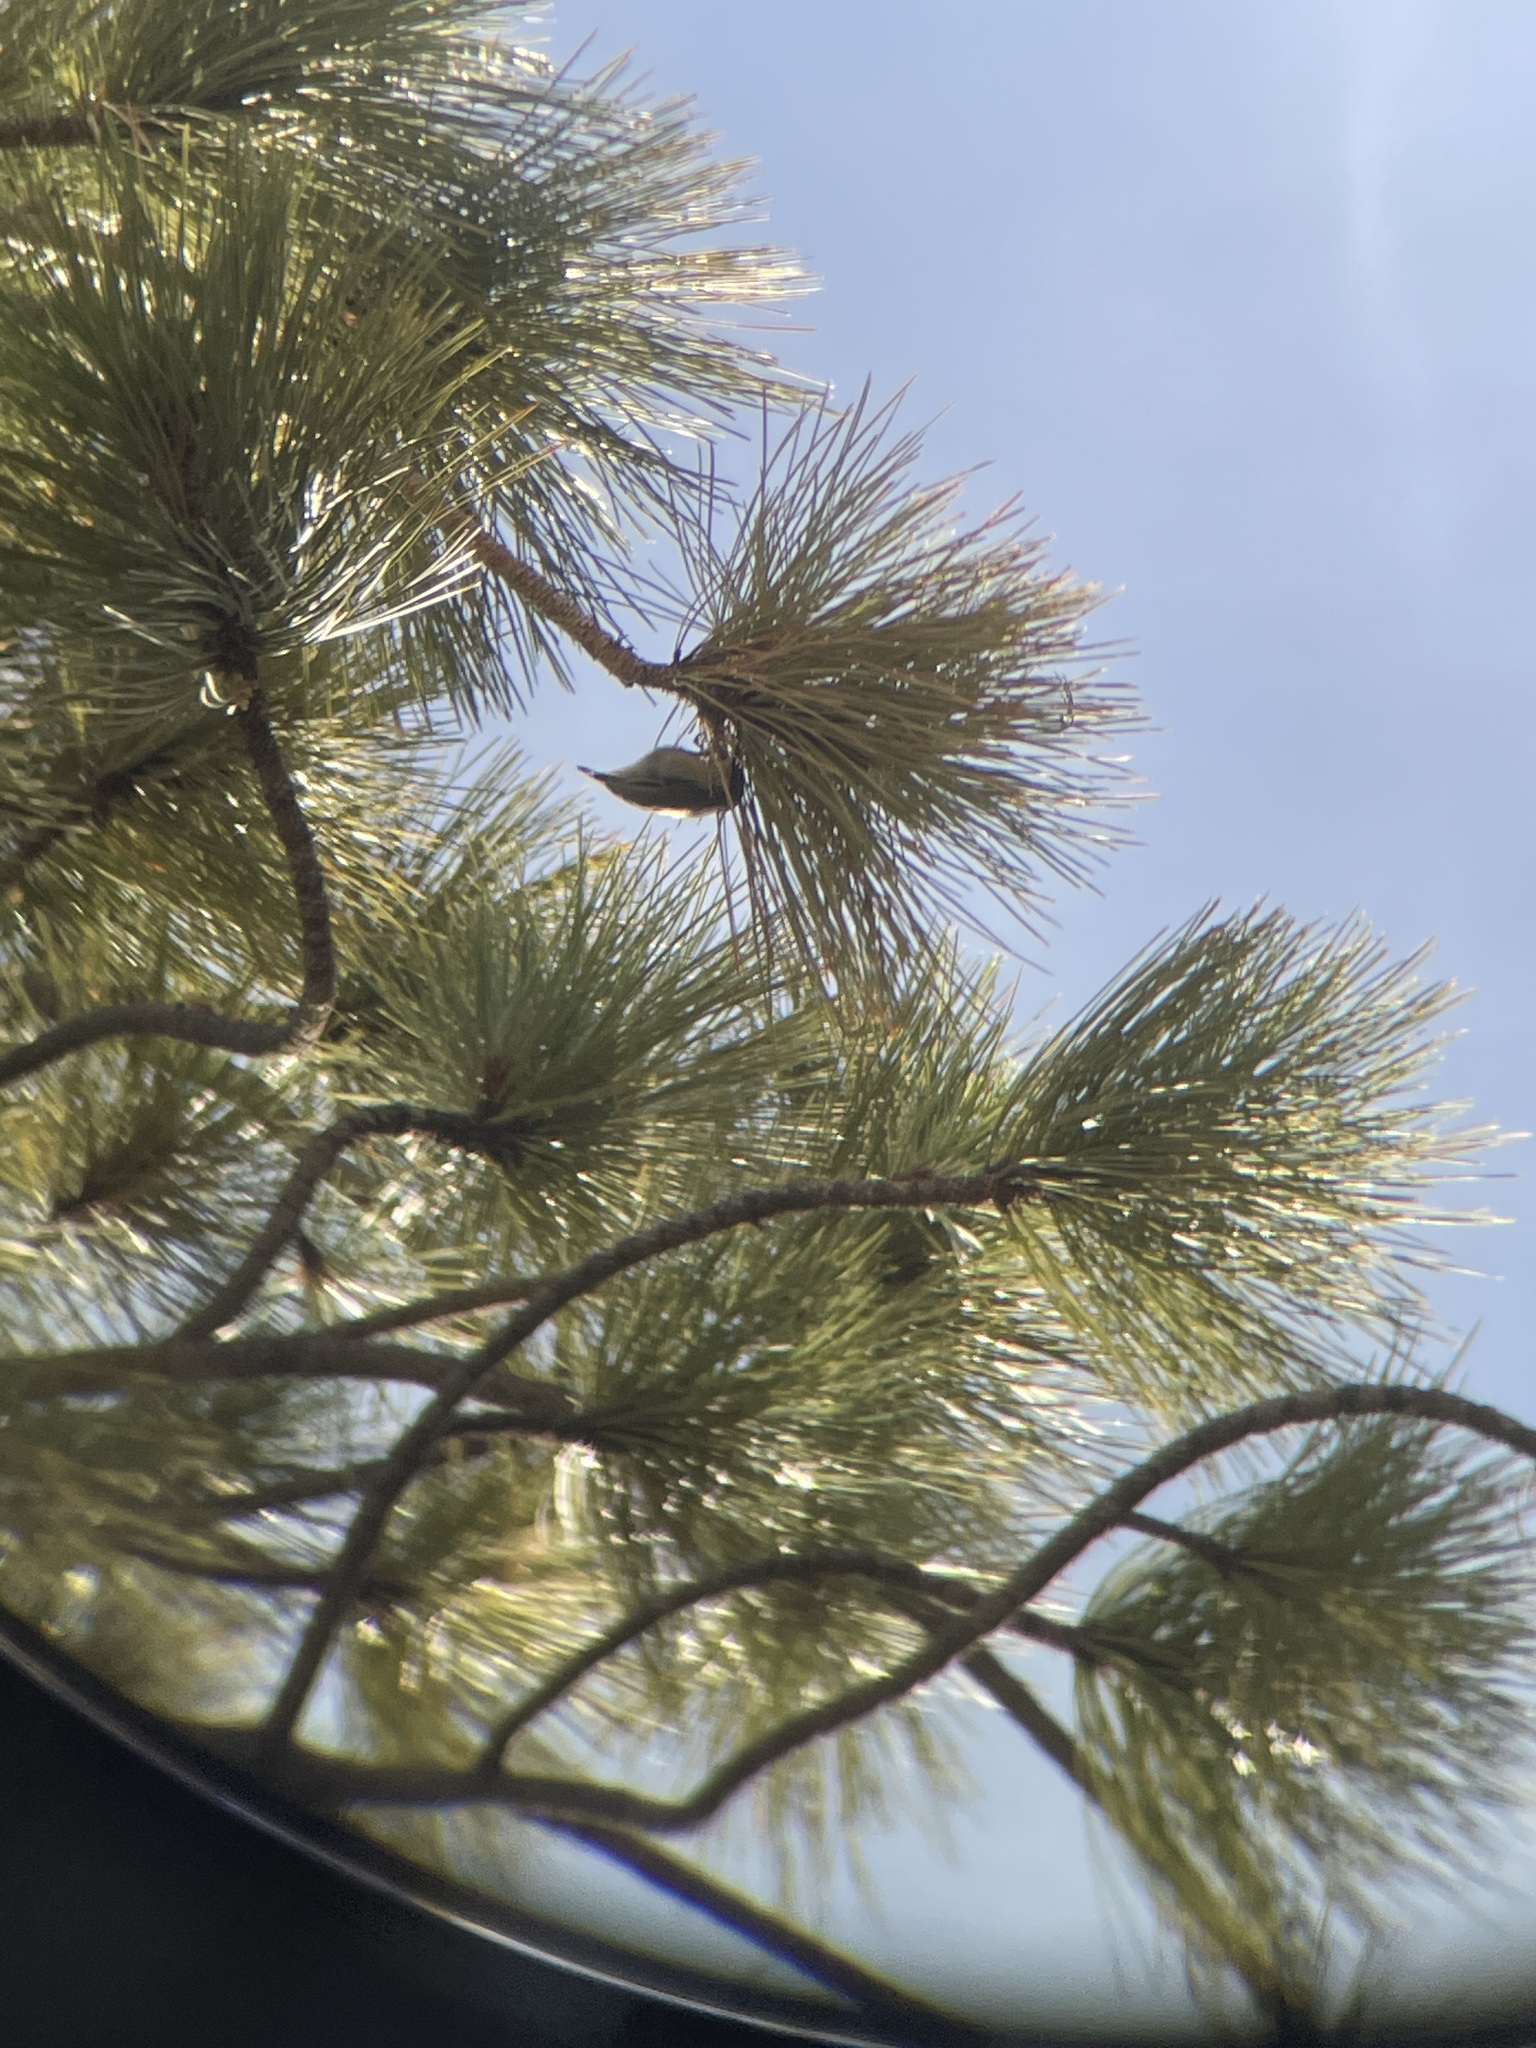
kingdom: Animalia
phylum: Chordata
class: Aves
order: Passeriformes
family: Sittidae
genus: Sitta
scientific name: Sitta pygmaea
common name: Pygmy nuthatch
